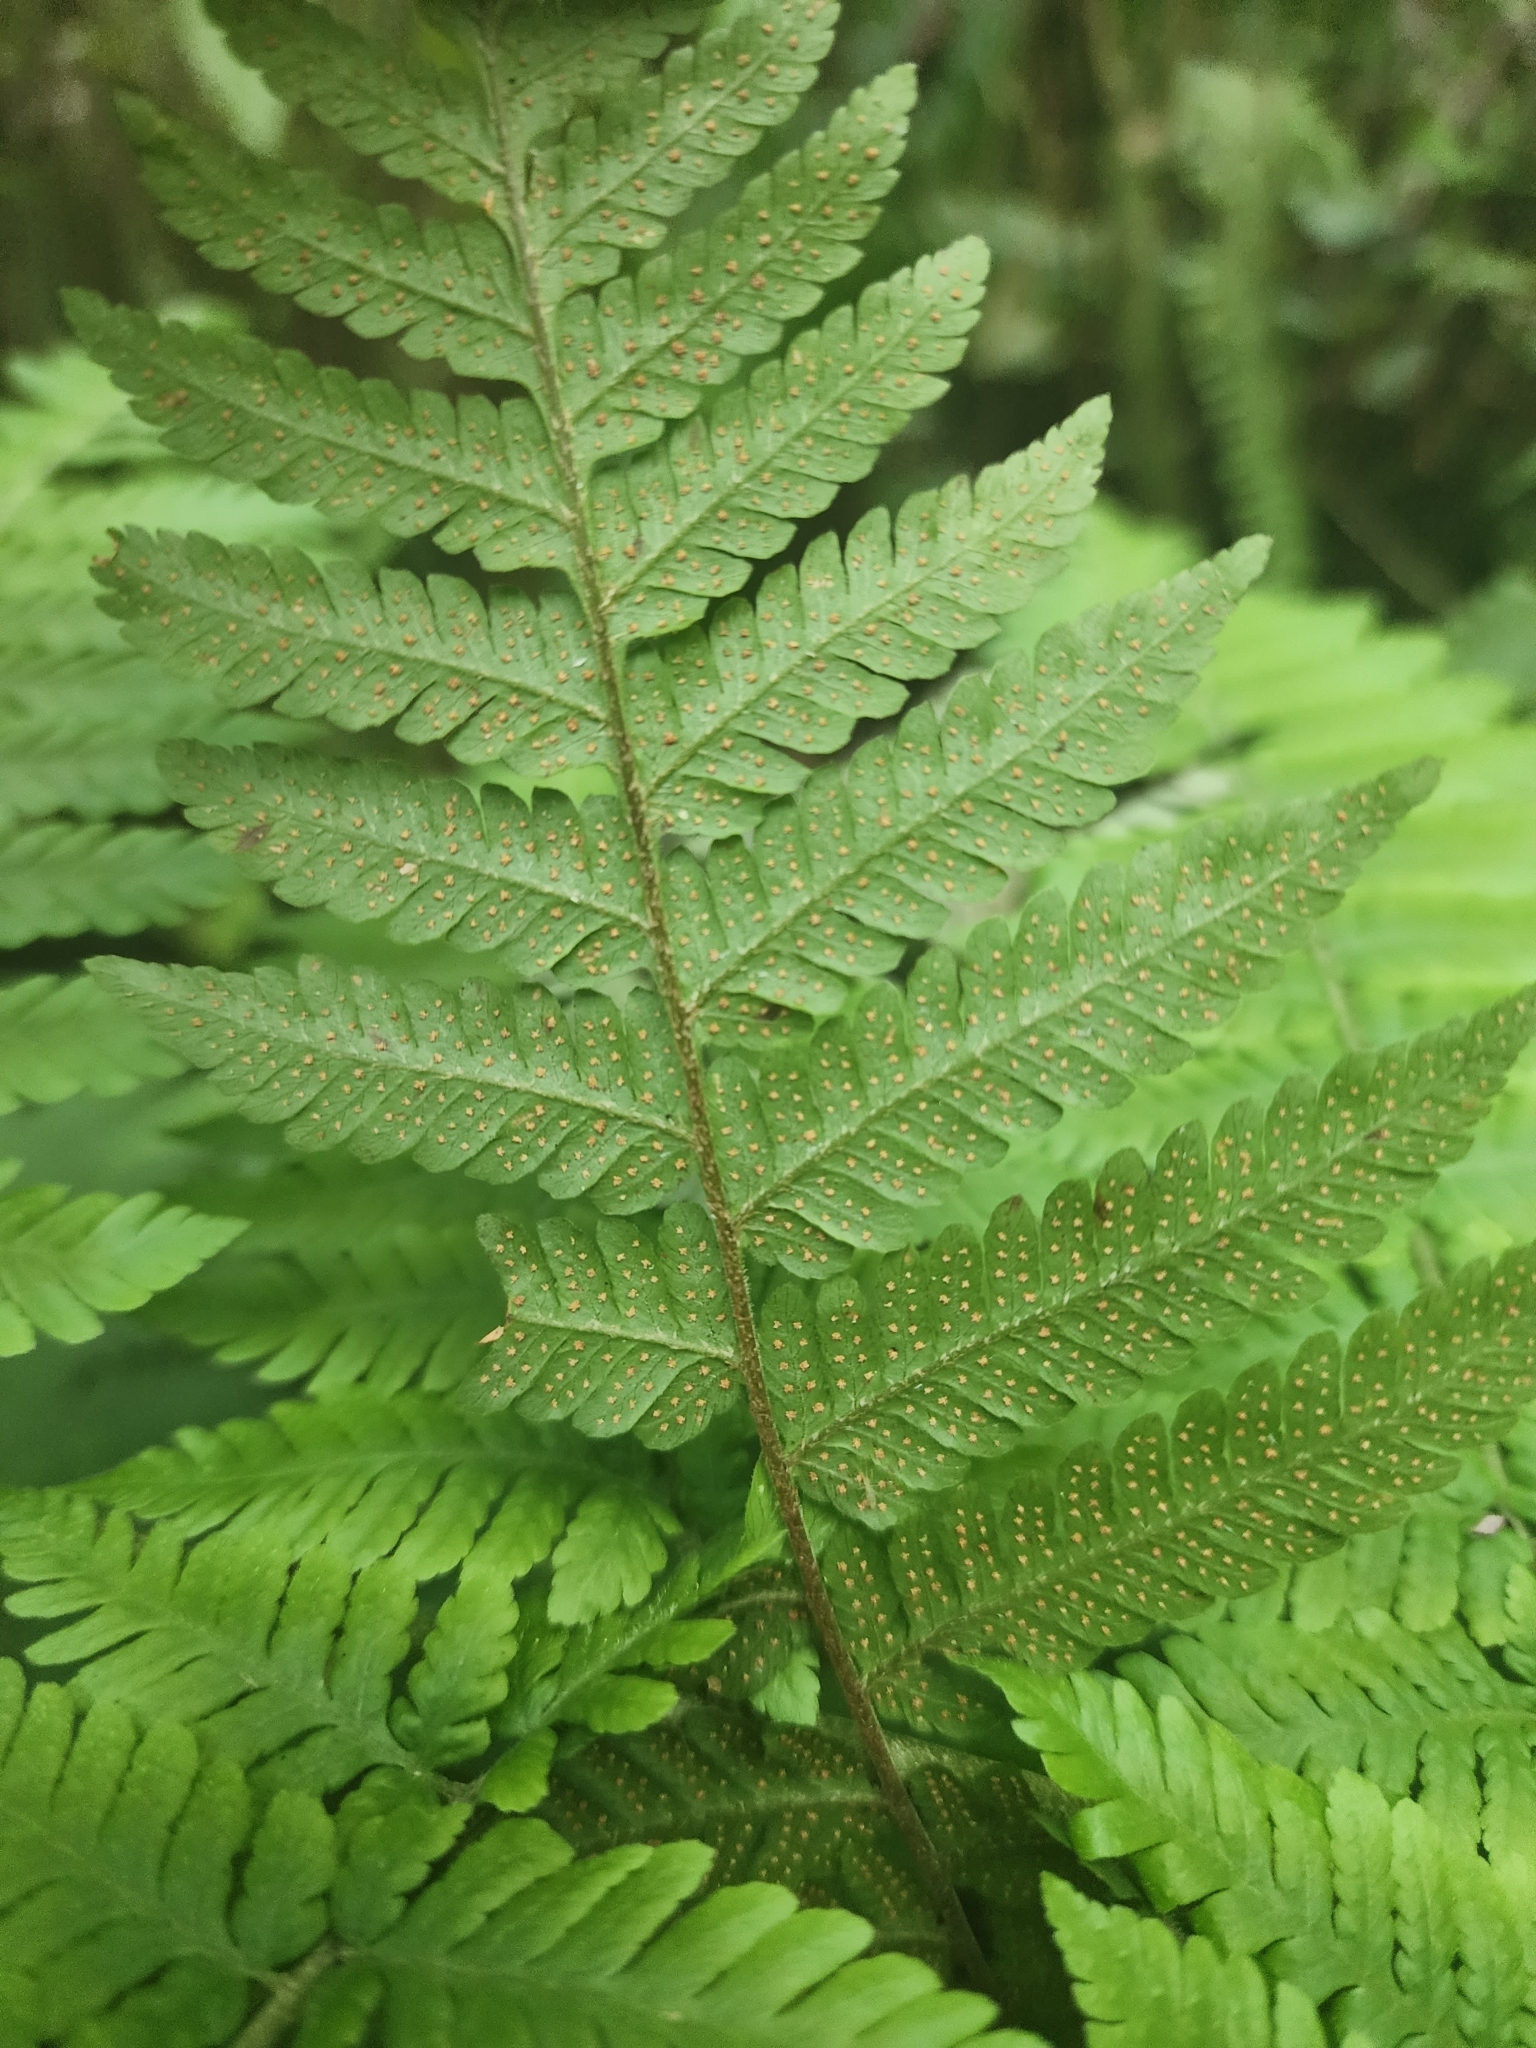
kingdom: Plantae
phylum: Tracheophyta
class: Polypodiopsida
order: Polypodiales
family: Dryopteridaceae
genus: Ctenitis
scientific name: Ctenitis sloanei
